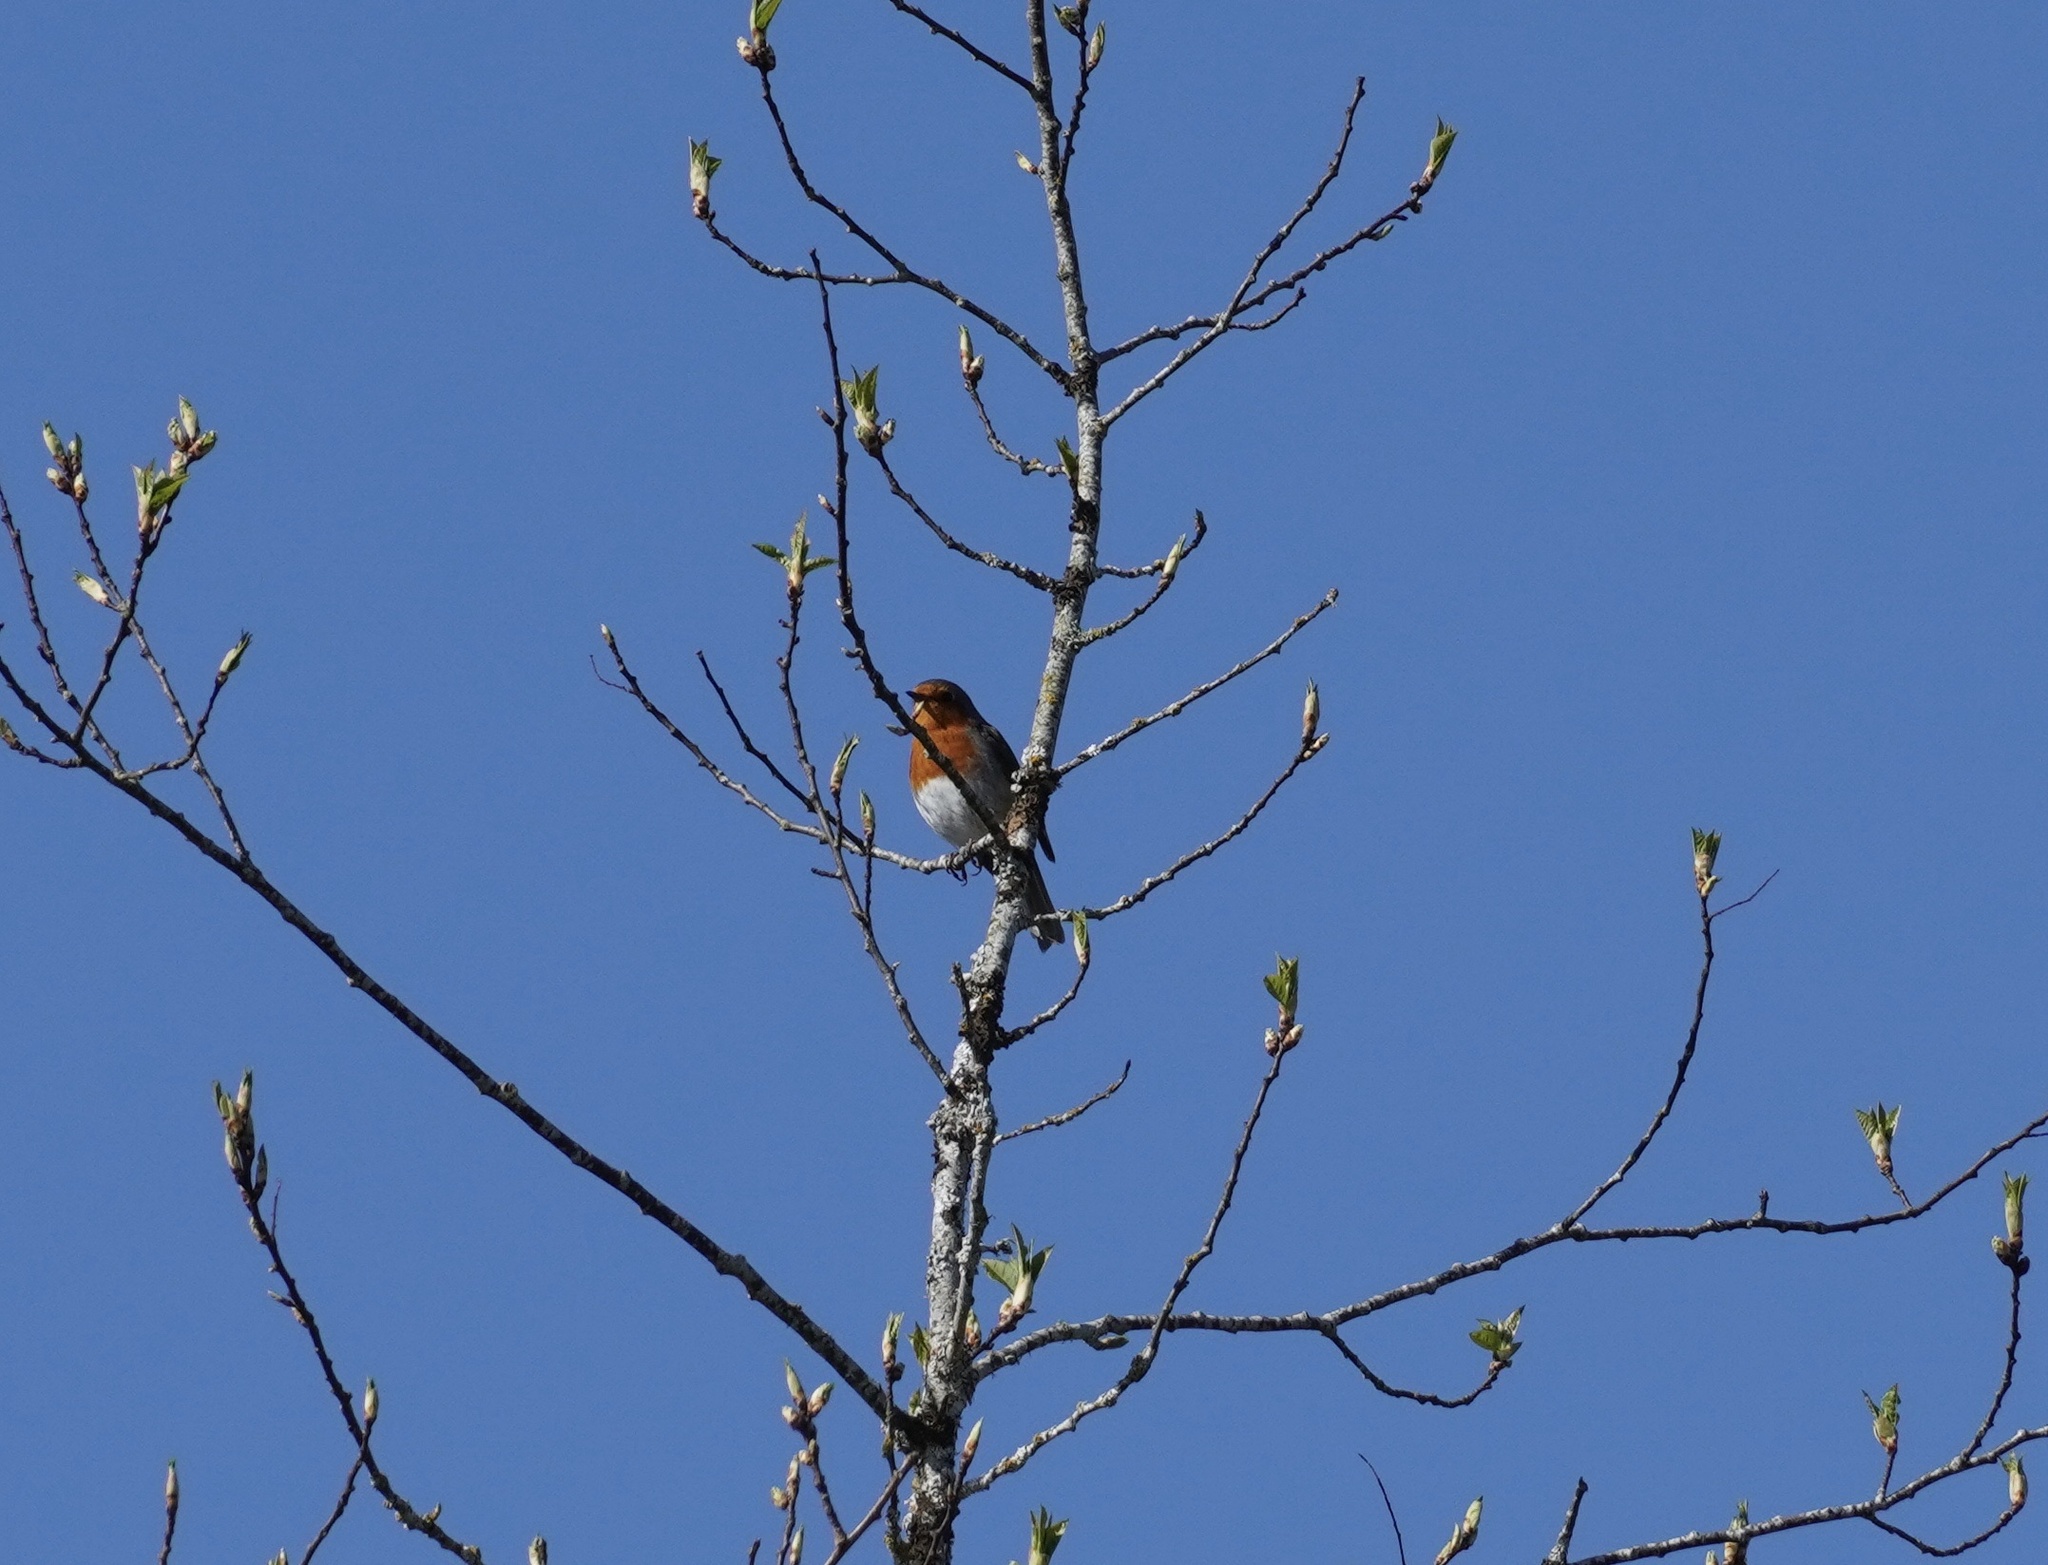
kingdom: Animalia
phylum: Chordata
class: Aves
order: Passeriformes
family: Muscicapidae
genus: Erithacus
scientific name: Erithacus rubecula
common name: European robin
